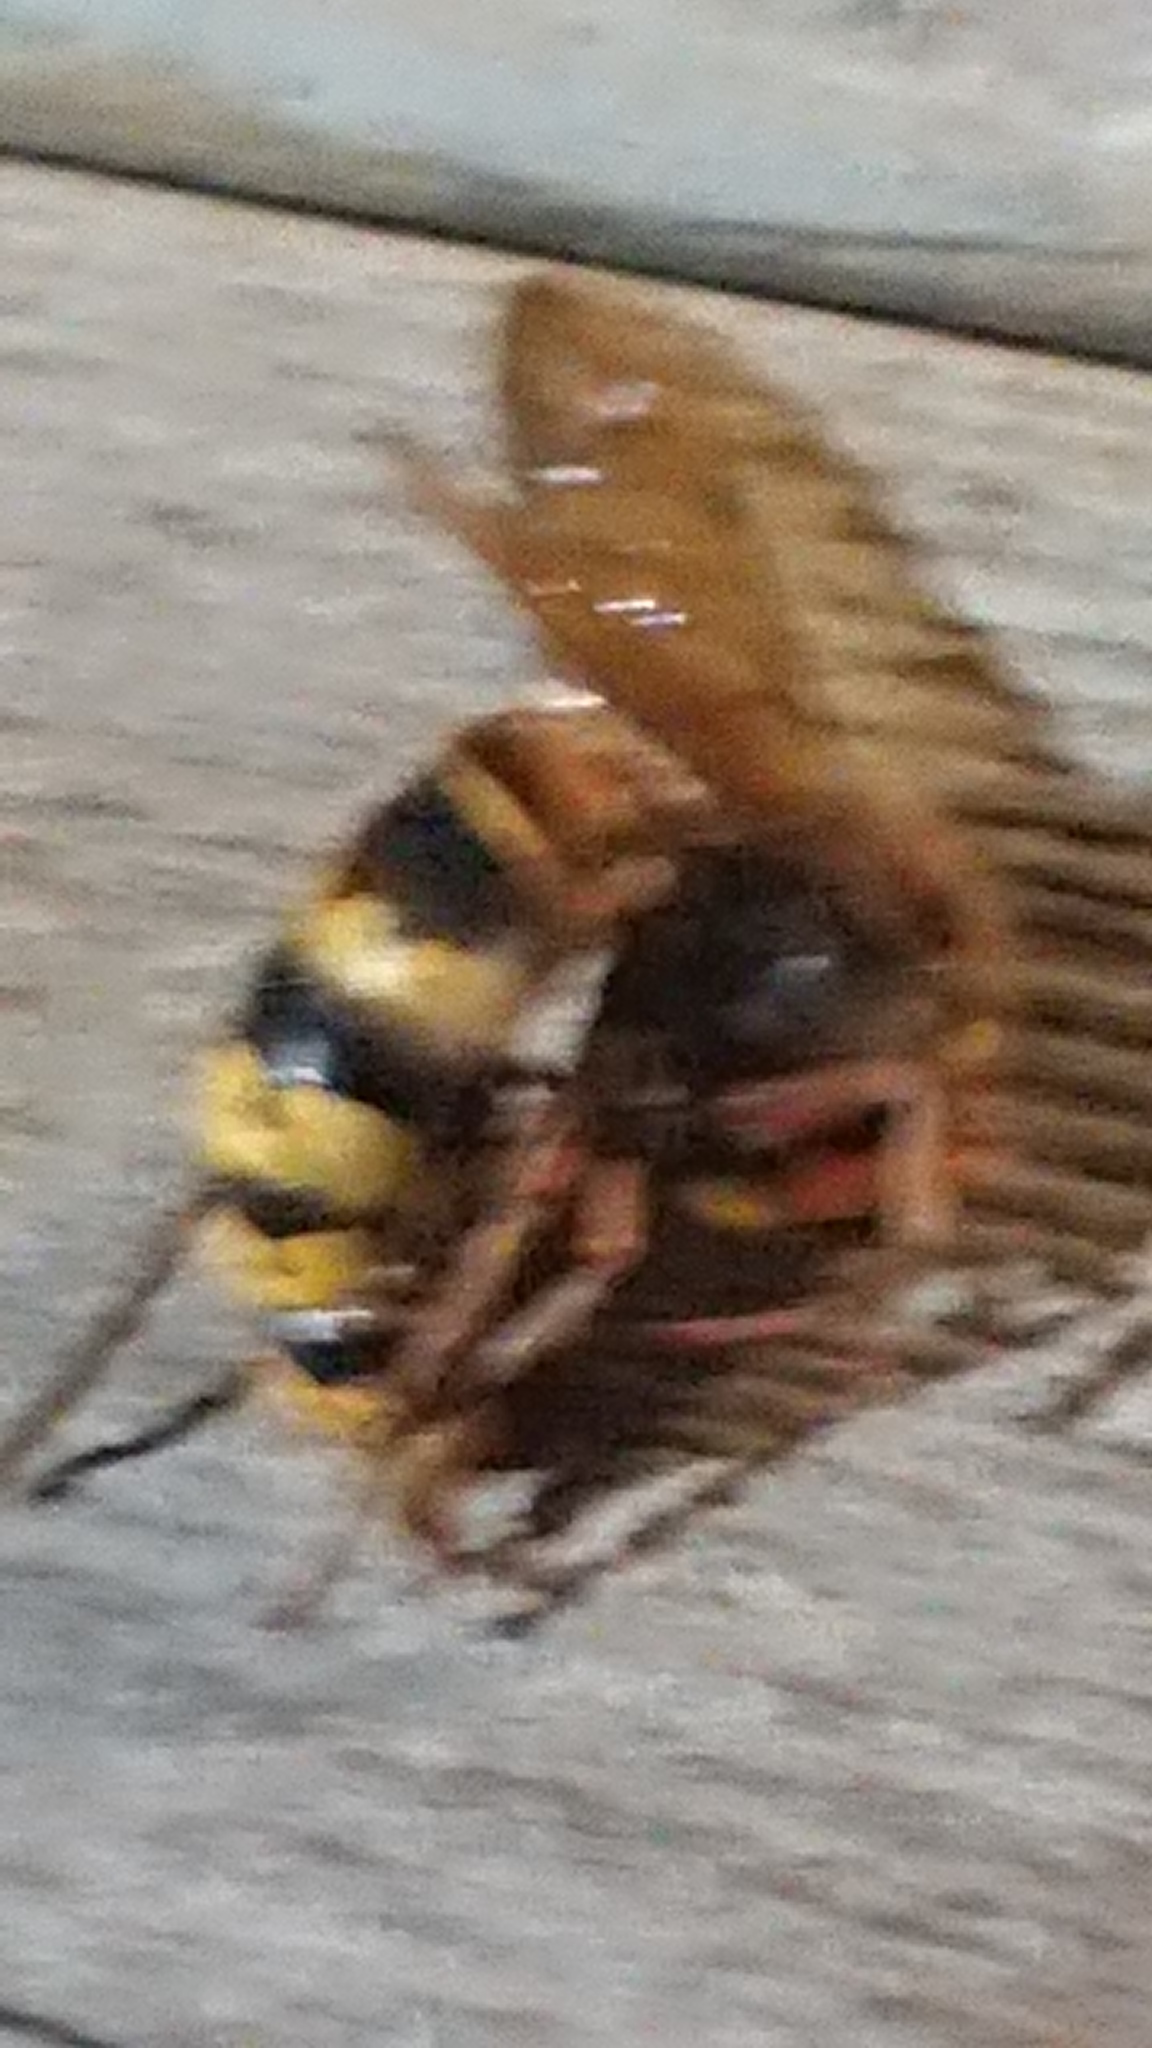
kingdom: Animalia
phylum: Arthropoda
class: Insecta
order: Hymenoptera
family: Vespidae
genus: Vespa
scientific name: Vespa crabro
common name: Hornet
